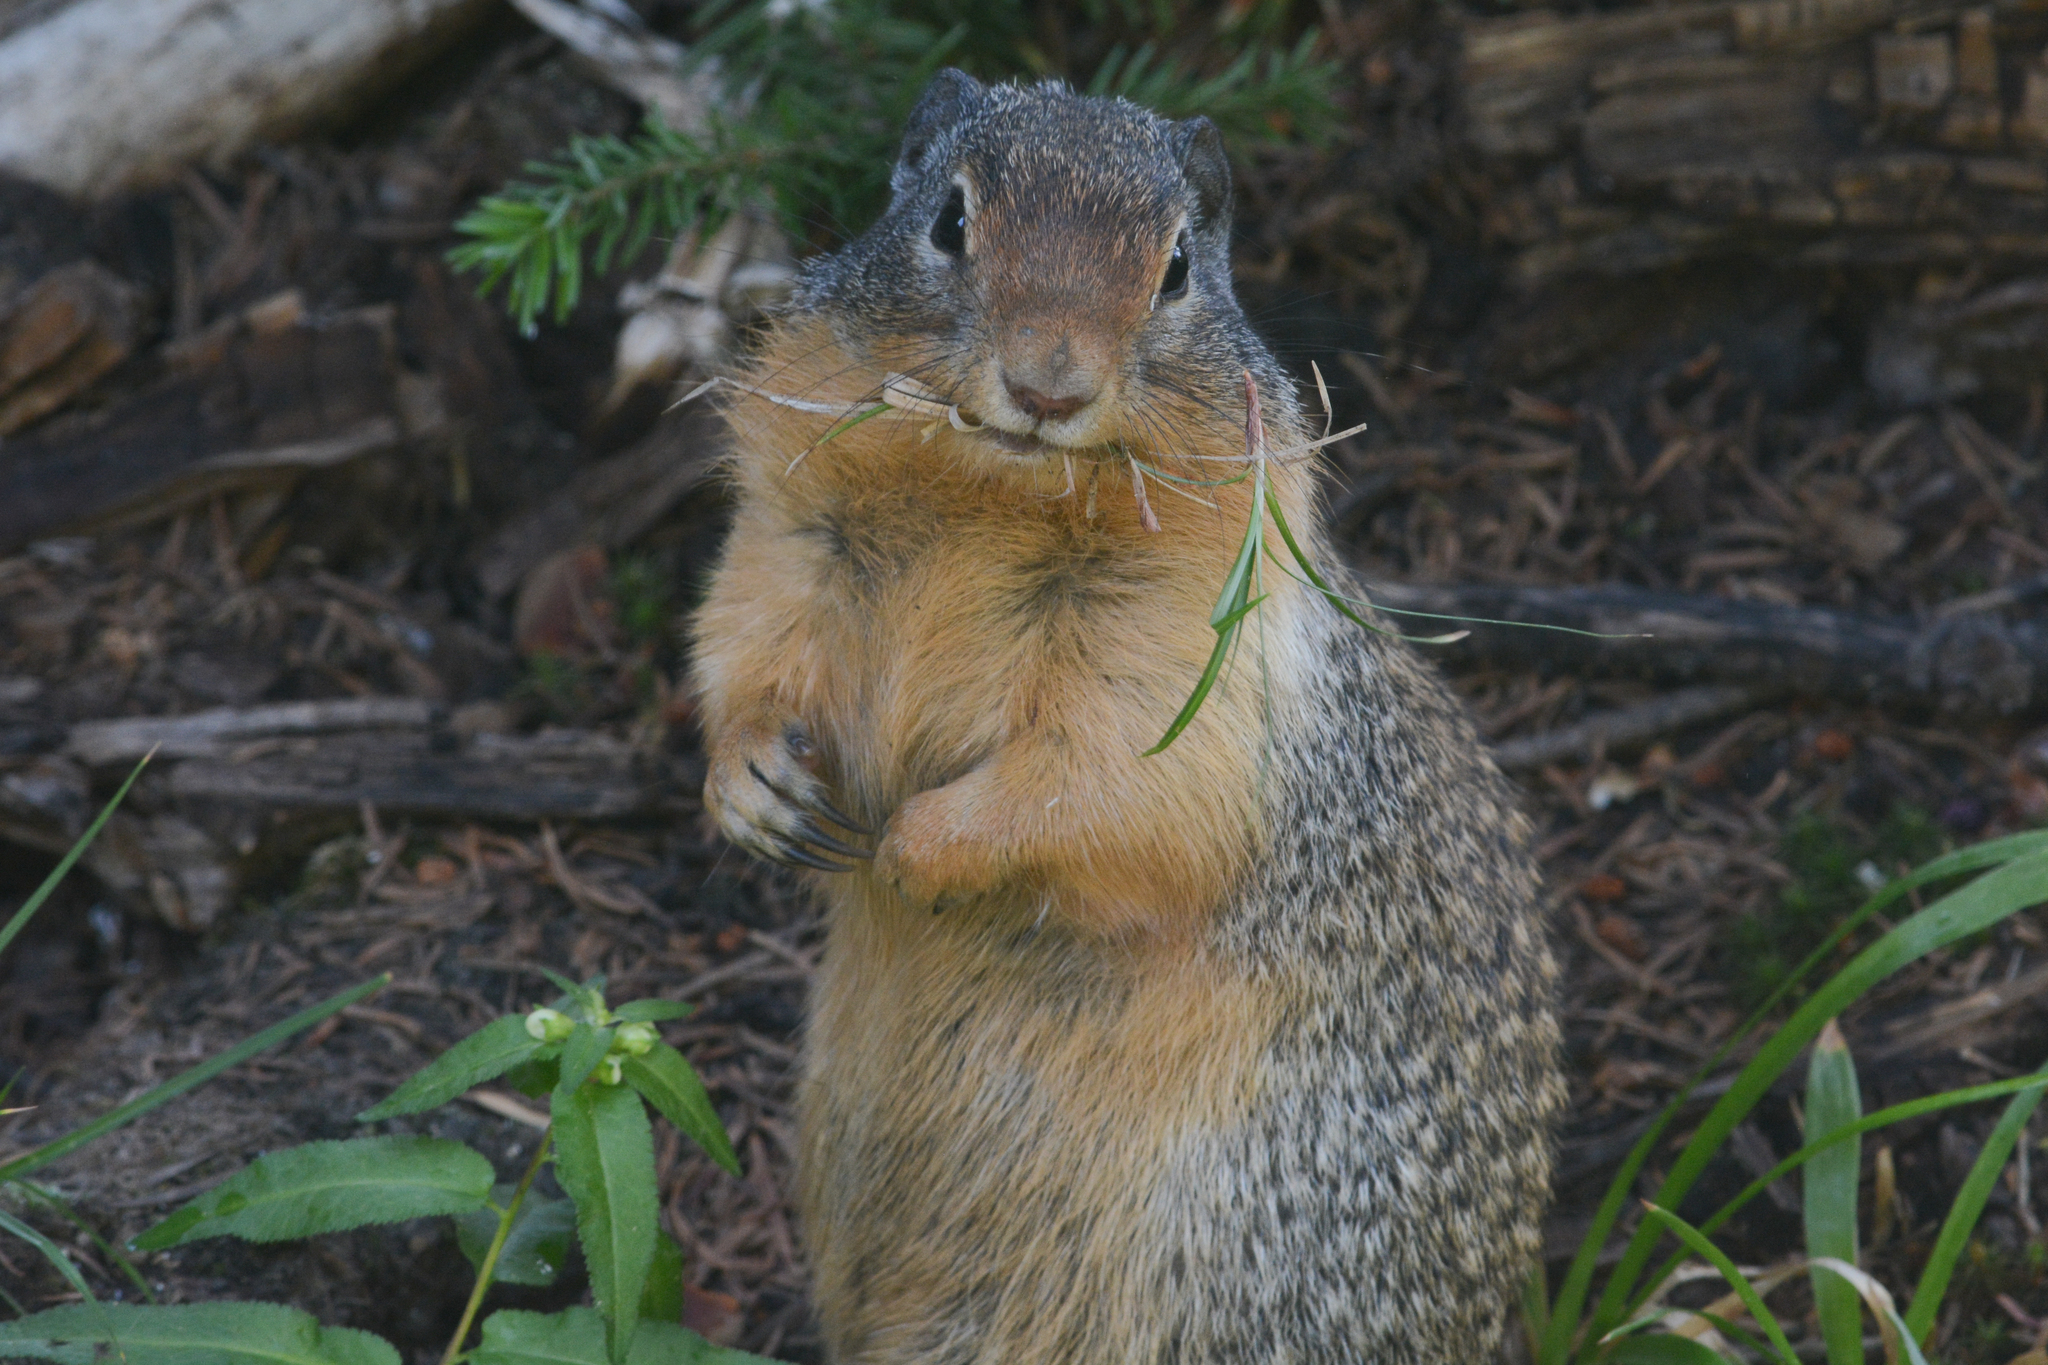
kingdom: Animalia
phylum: Chordata
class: Mammalia
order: Rodentia
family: Sciuridae
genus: Urocitellus
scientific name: Urocitellus columbianus
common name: Columbian ground squirrel
